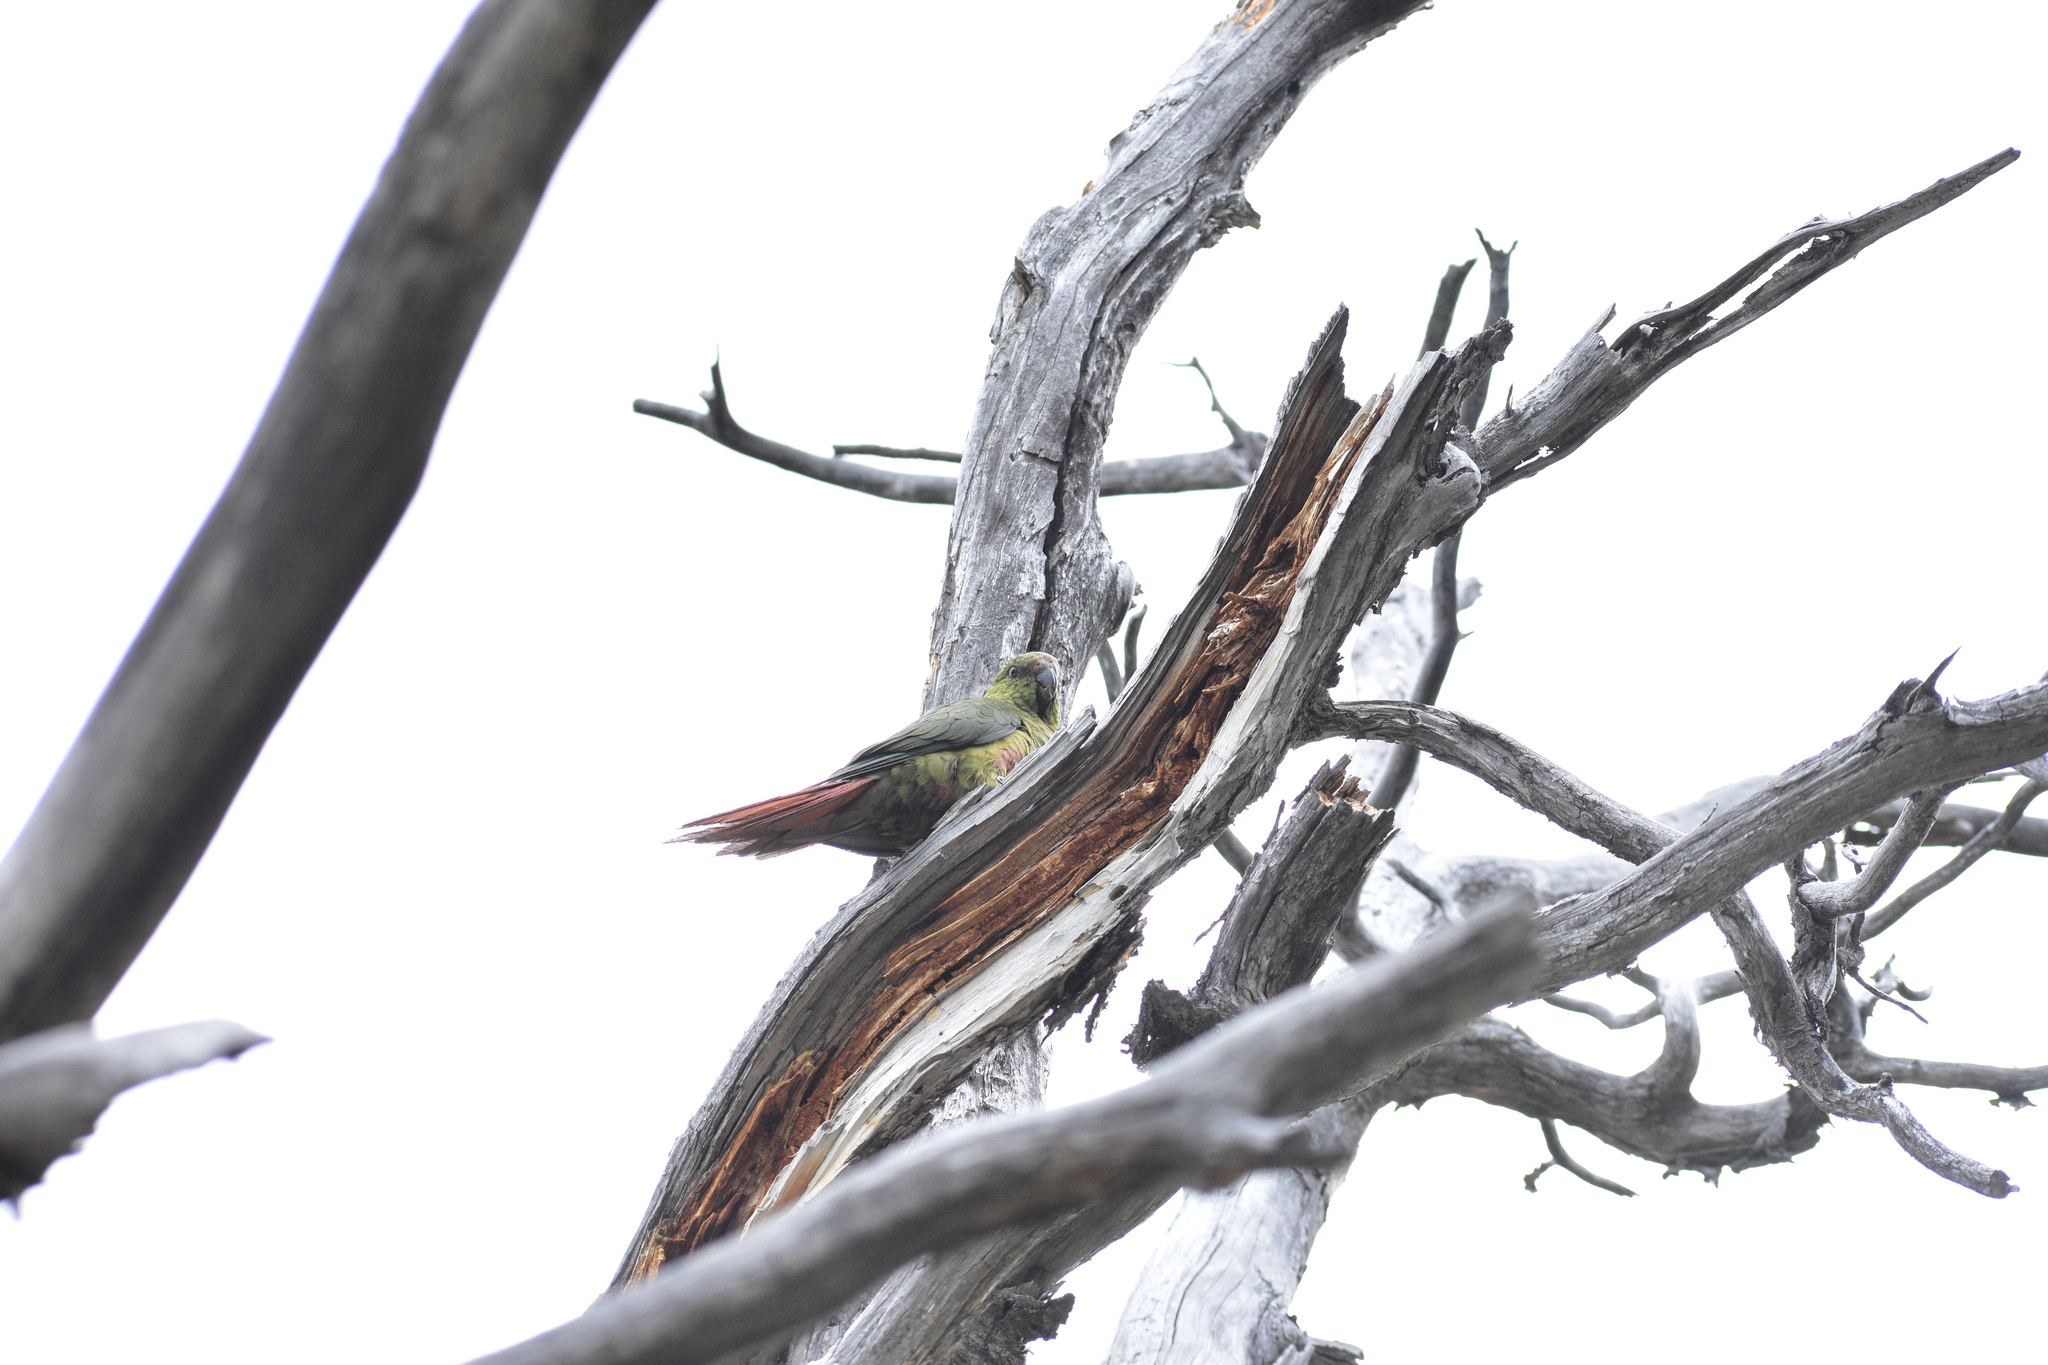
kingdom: Animalia
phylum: Chordata
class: Aves
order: Psittaciformes
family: Psittacidae
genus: Enicognathus
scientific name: Enicognathus ferrugineus
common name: Austral parakeet
